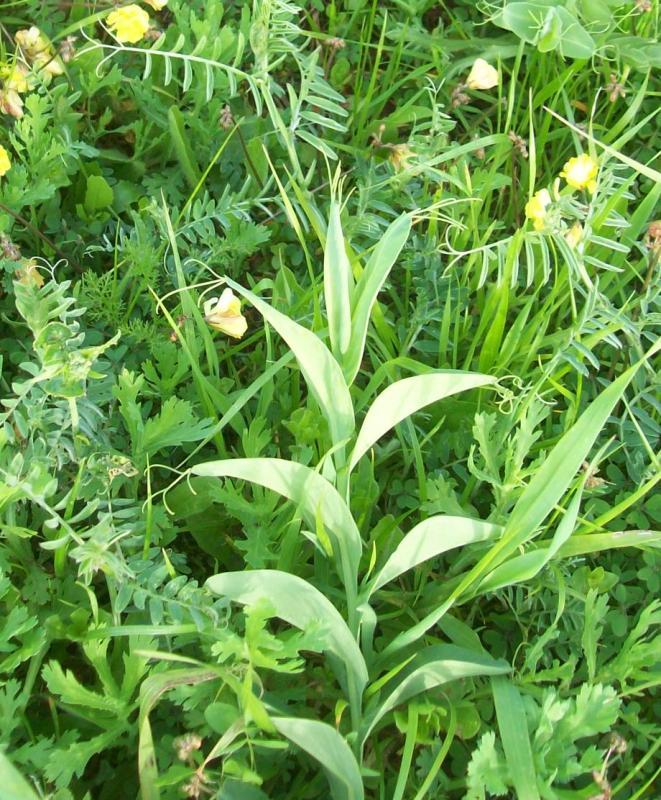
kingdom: Plantae
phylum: Tracheophyta
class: Magnoliopsida
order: Fabales
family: Fabaceae
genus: Lathyrus
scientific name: Lathyrus ochrus
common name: Winged vetchling
